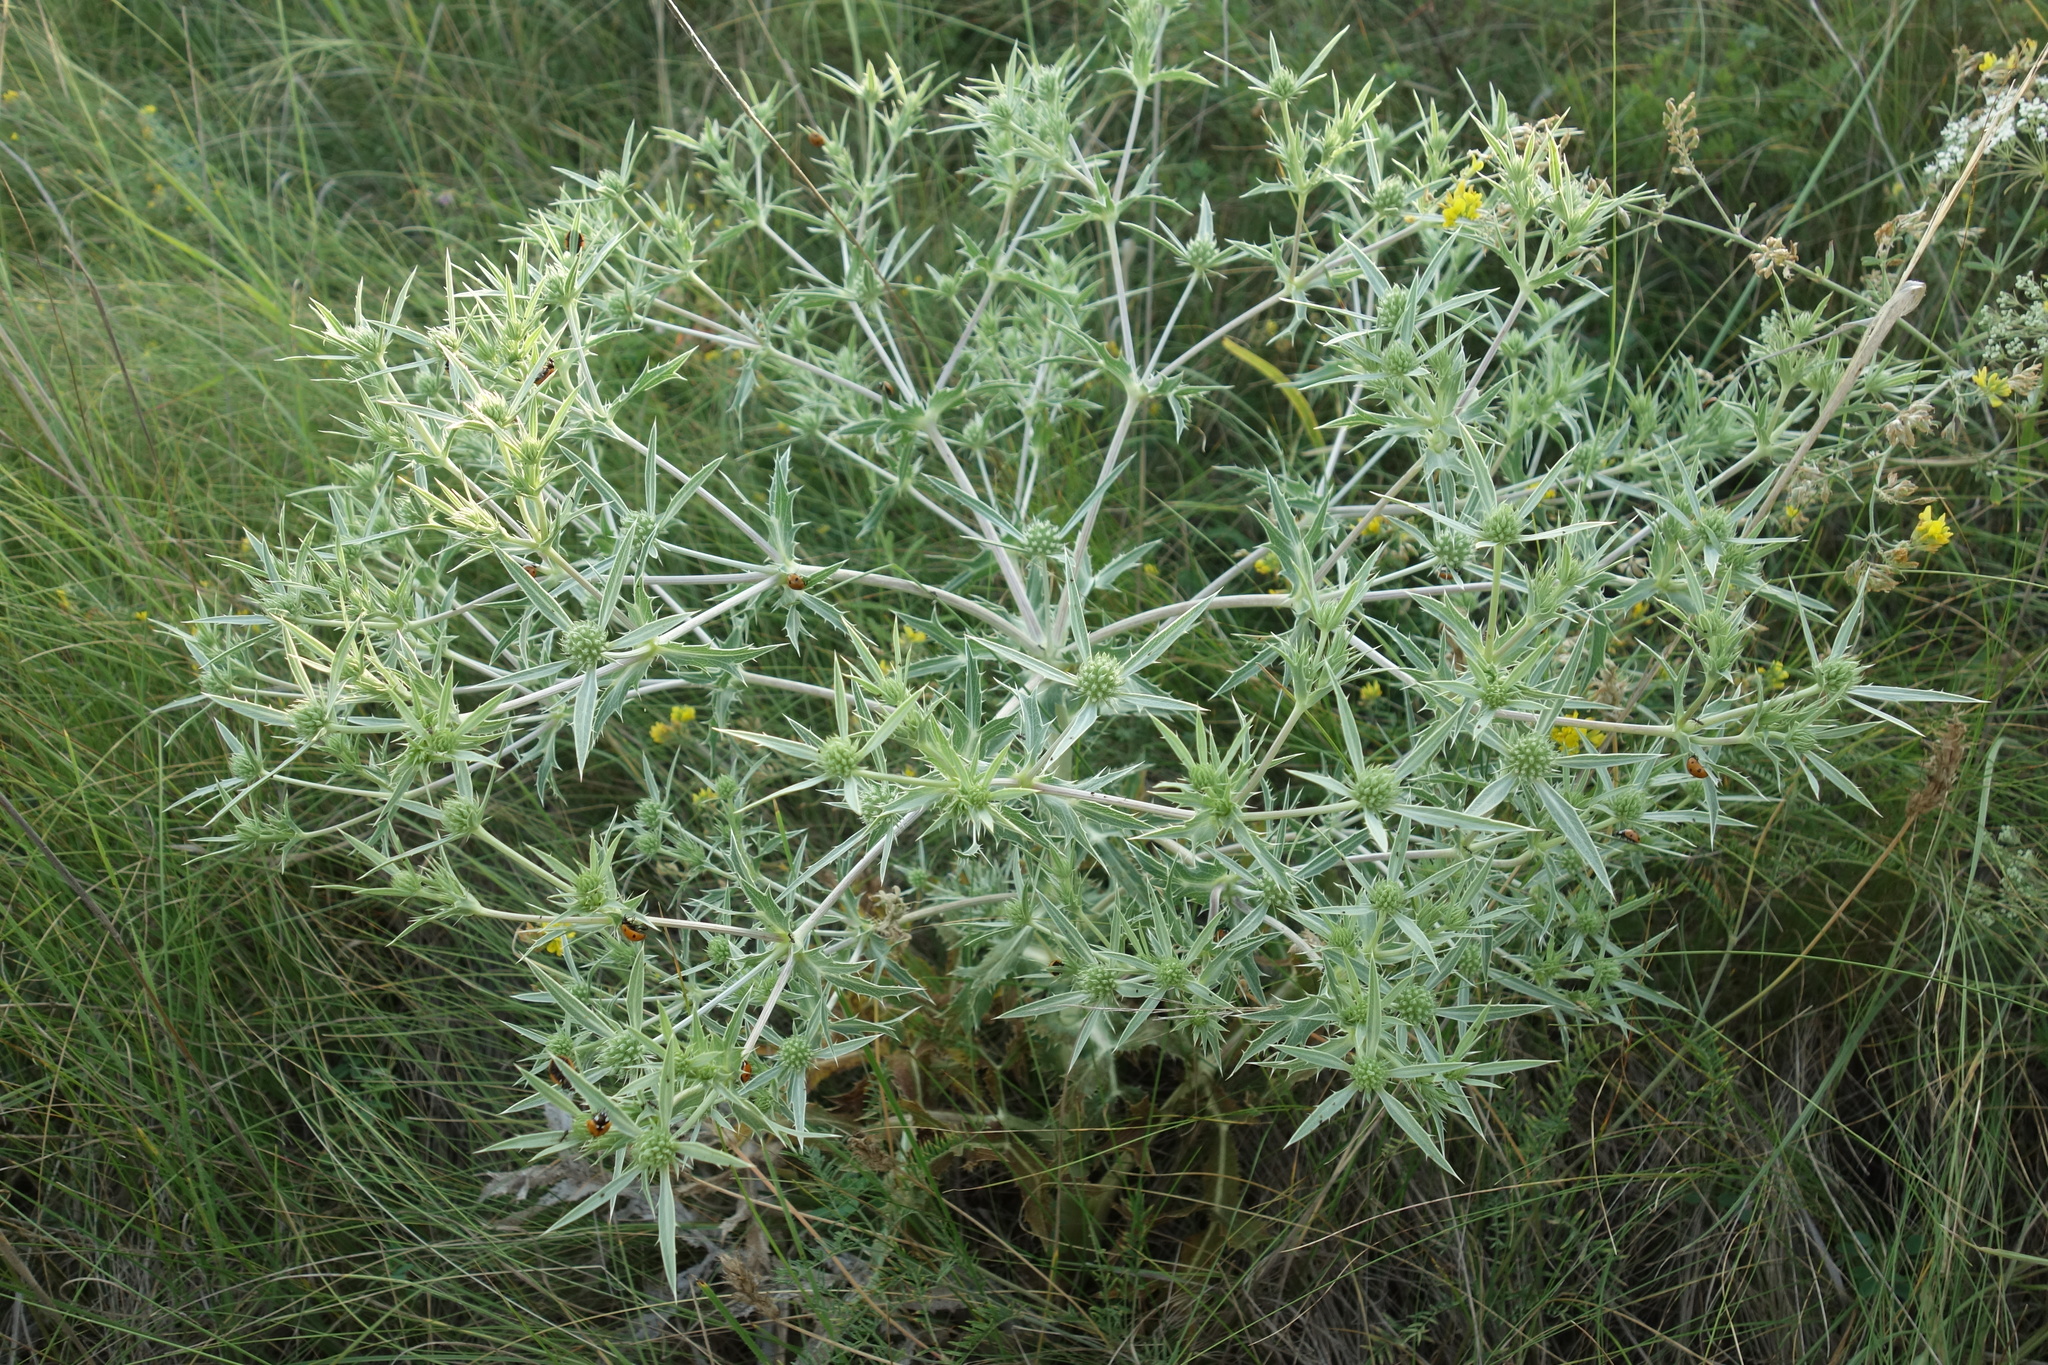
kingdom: Plantae
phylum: Tracheophyta
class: Magnoliopsida
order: Apiales
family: Apiaceae
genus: Eryngium
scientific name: Eryngium campestre
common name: Field eryngo
